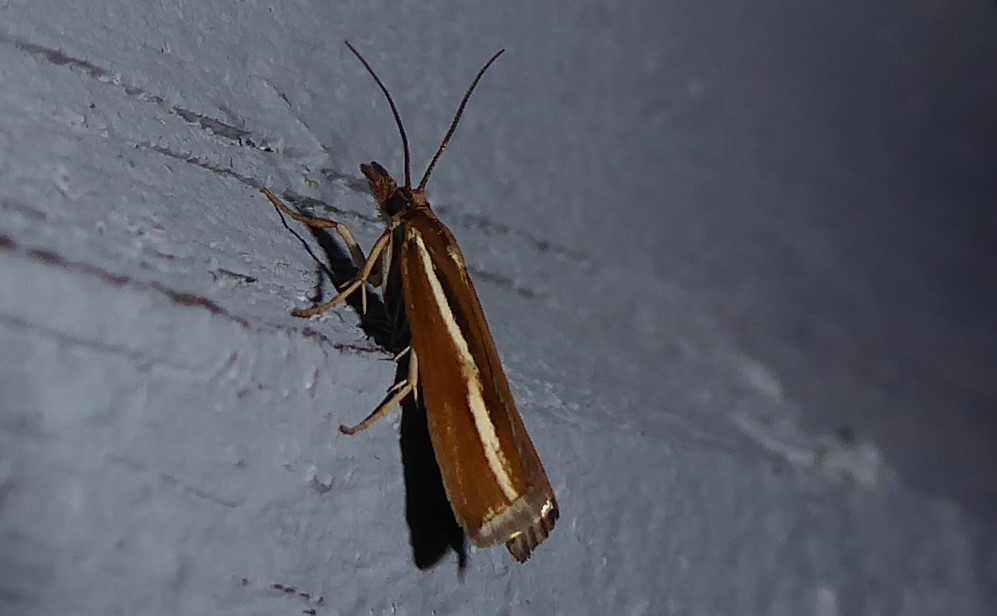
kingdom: Animalia
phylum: Arthropoda
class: Insecta
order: Lepidoptera
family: Crambidae
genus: Orocrambus
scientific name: Orocrambus melitastes
